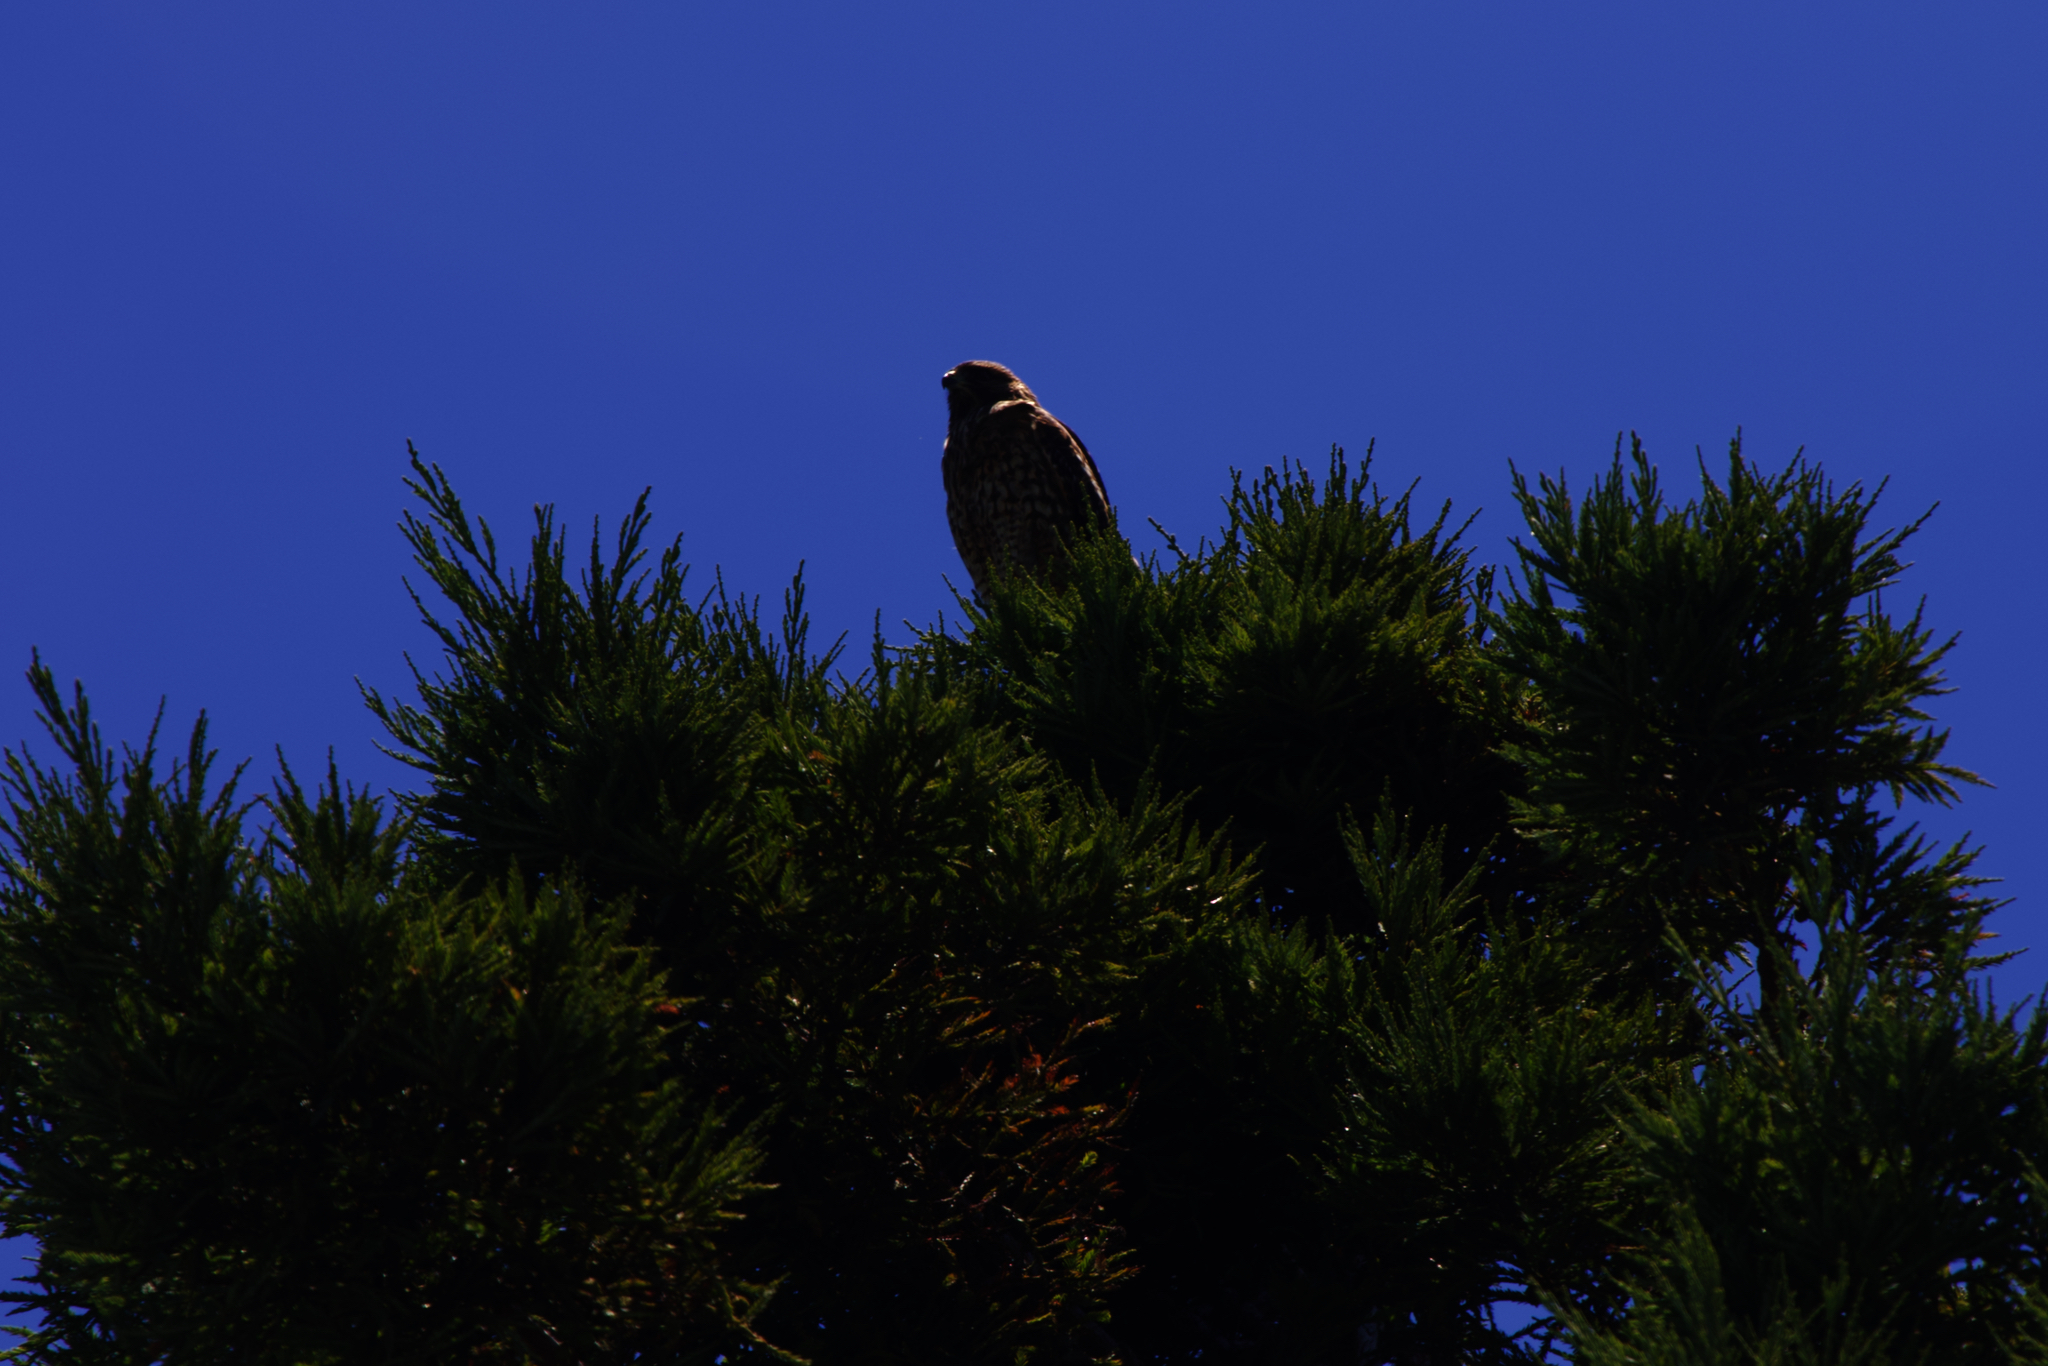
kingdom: Animalia
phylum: Chordata
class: Aves
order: Accipitriformes
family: Accipitridae
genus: Buteo
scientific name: Buteo lineatus
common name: Red-shouldered hawk
